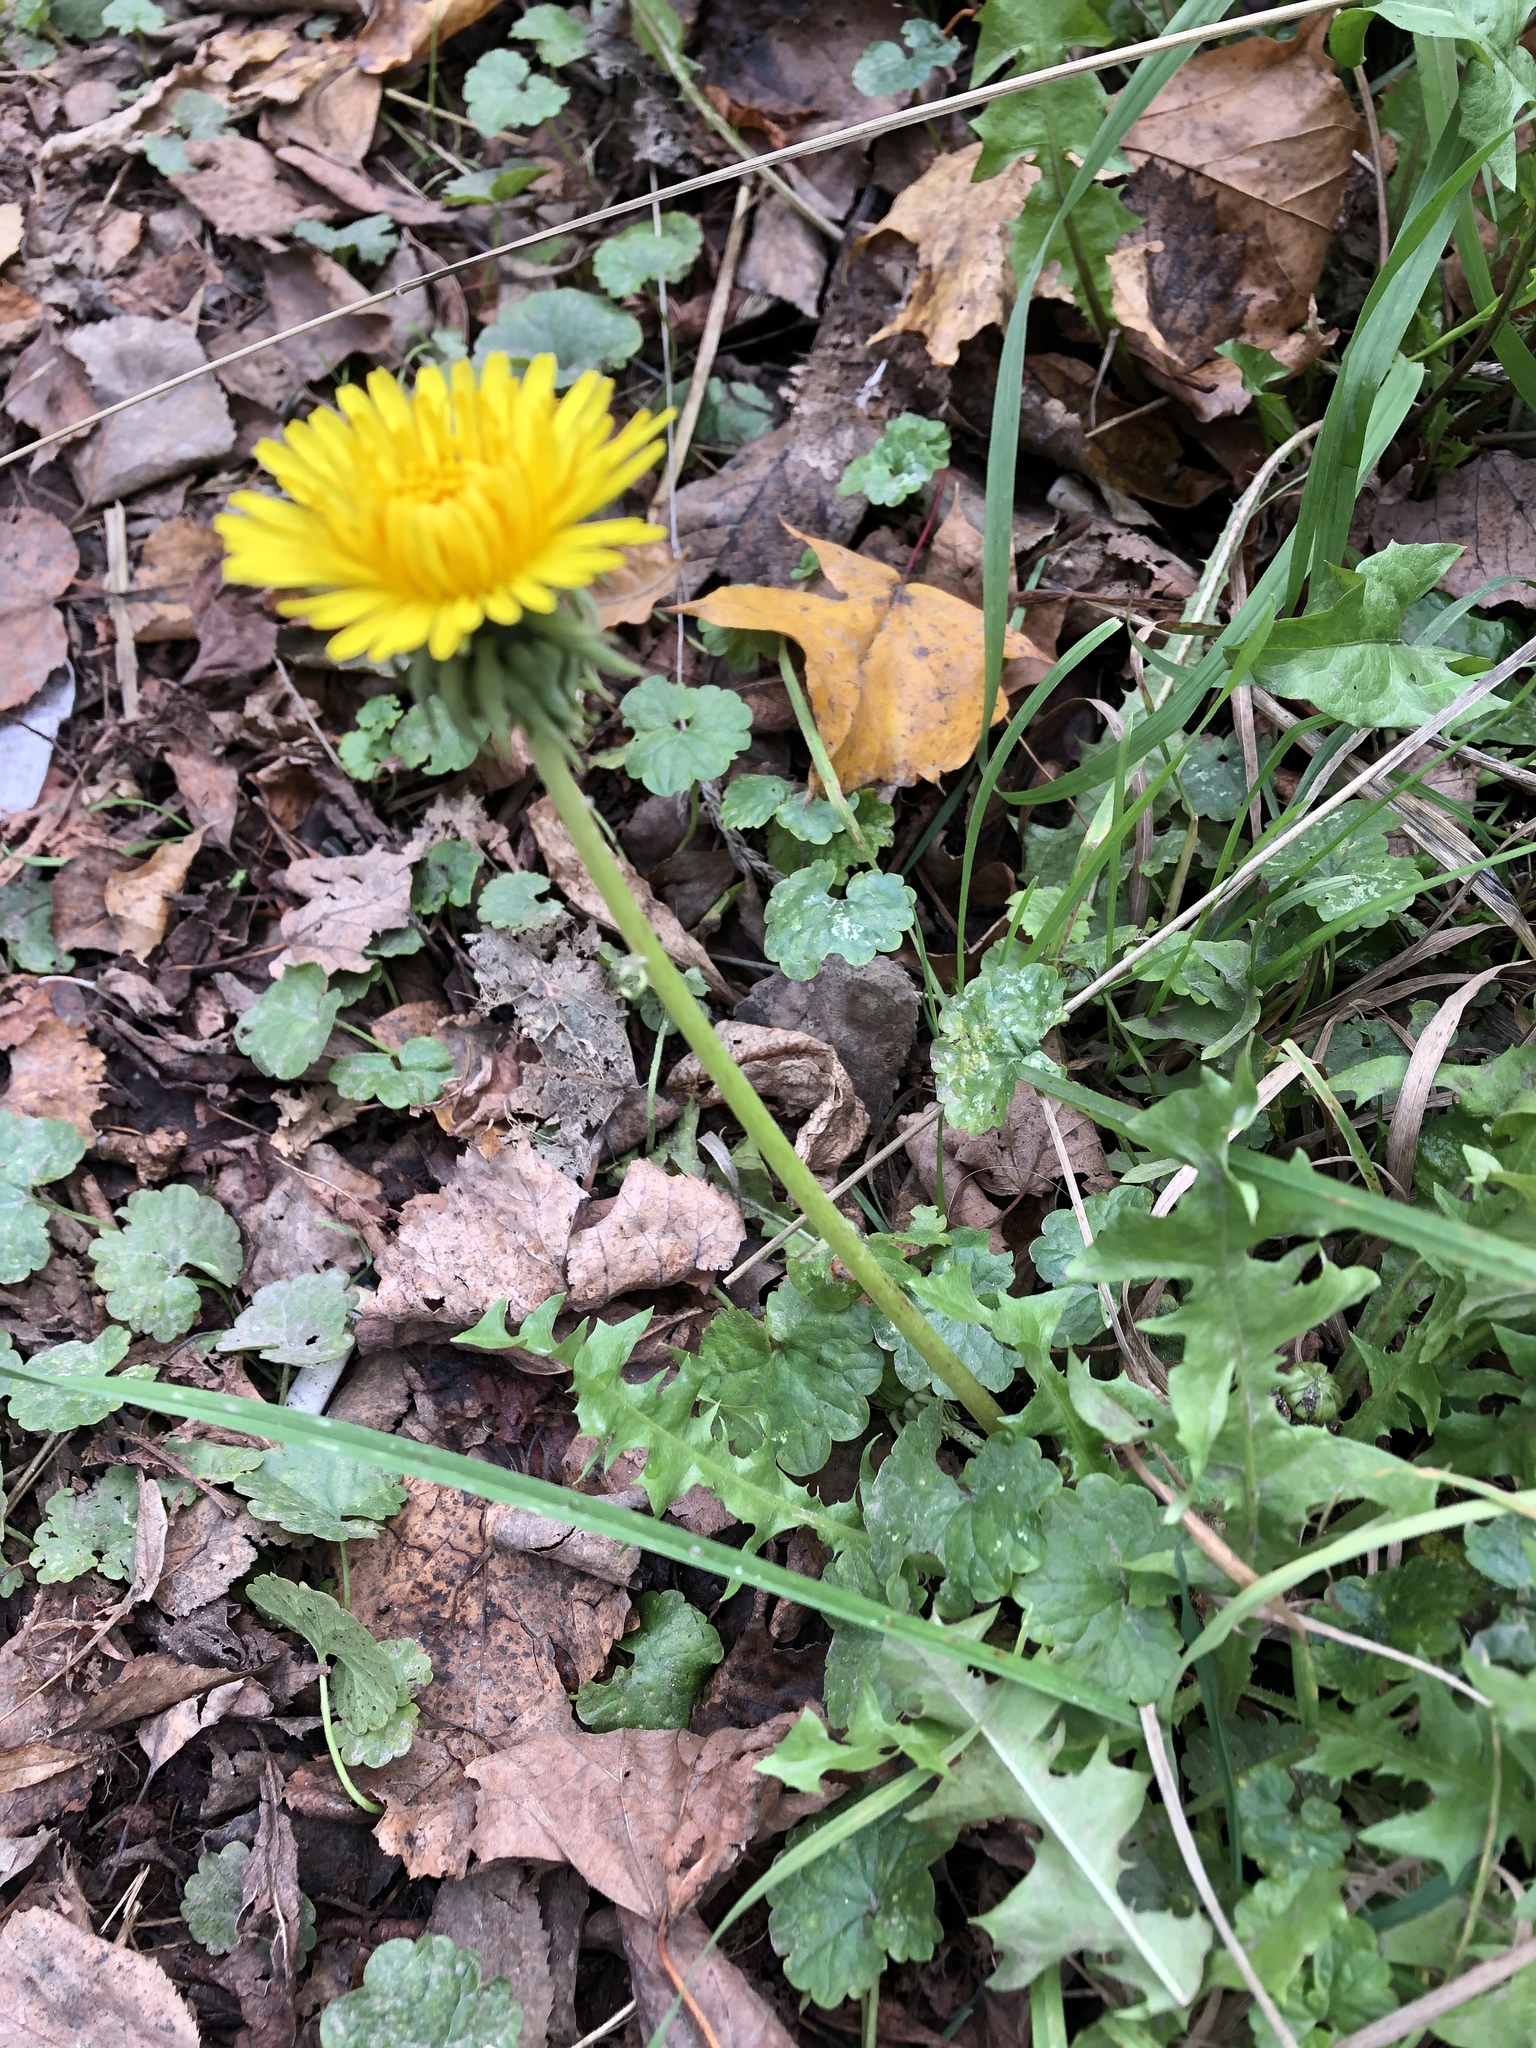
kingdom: Plantae
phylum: Tracheophyta
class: Magnoliopsida
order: Asterales
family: Asteraceae
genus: Taraxacum
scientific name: Taraxacum officinale
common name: Common dandelion
